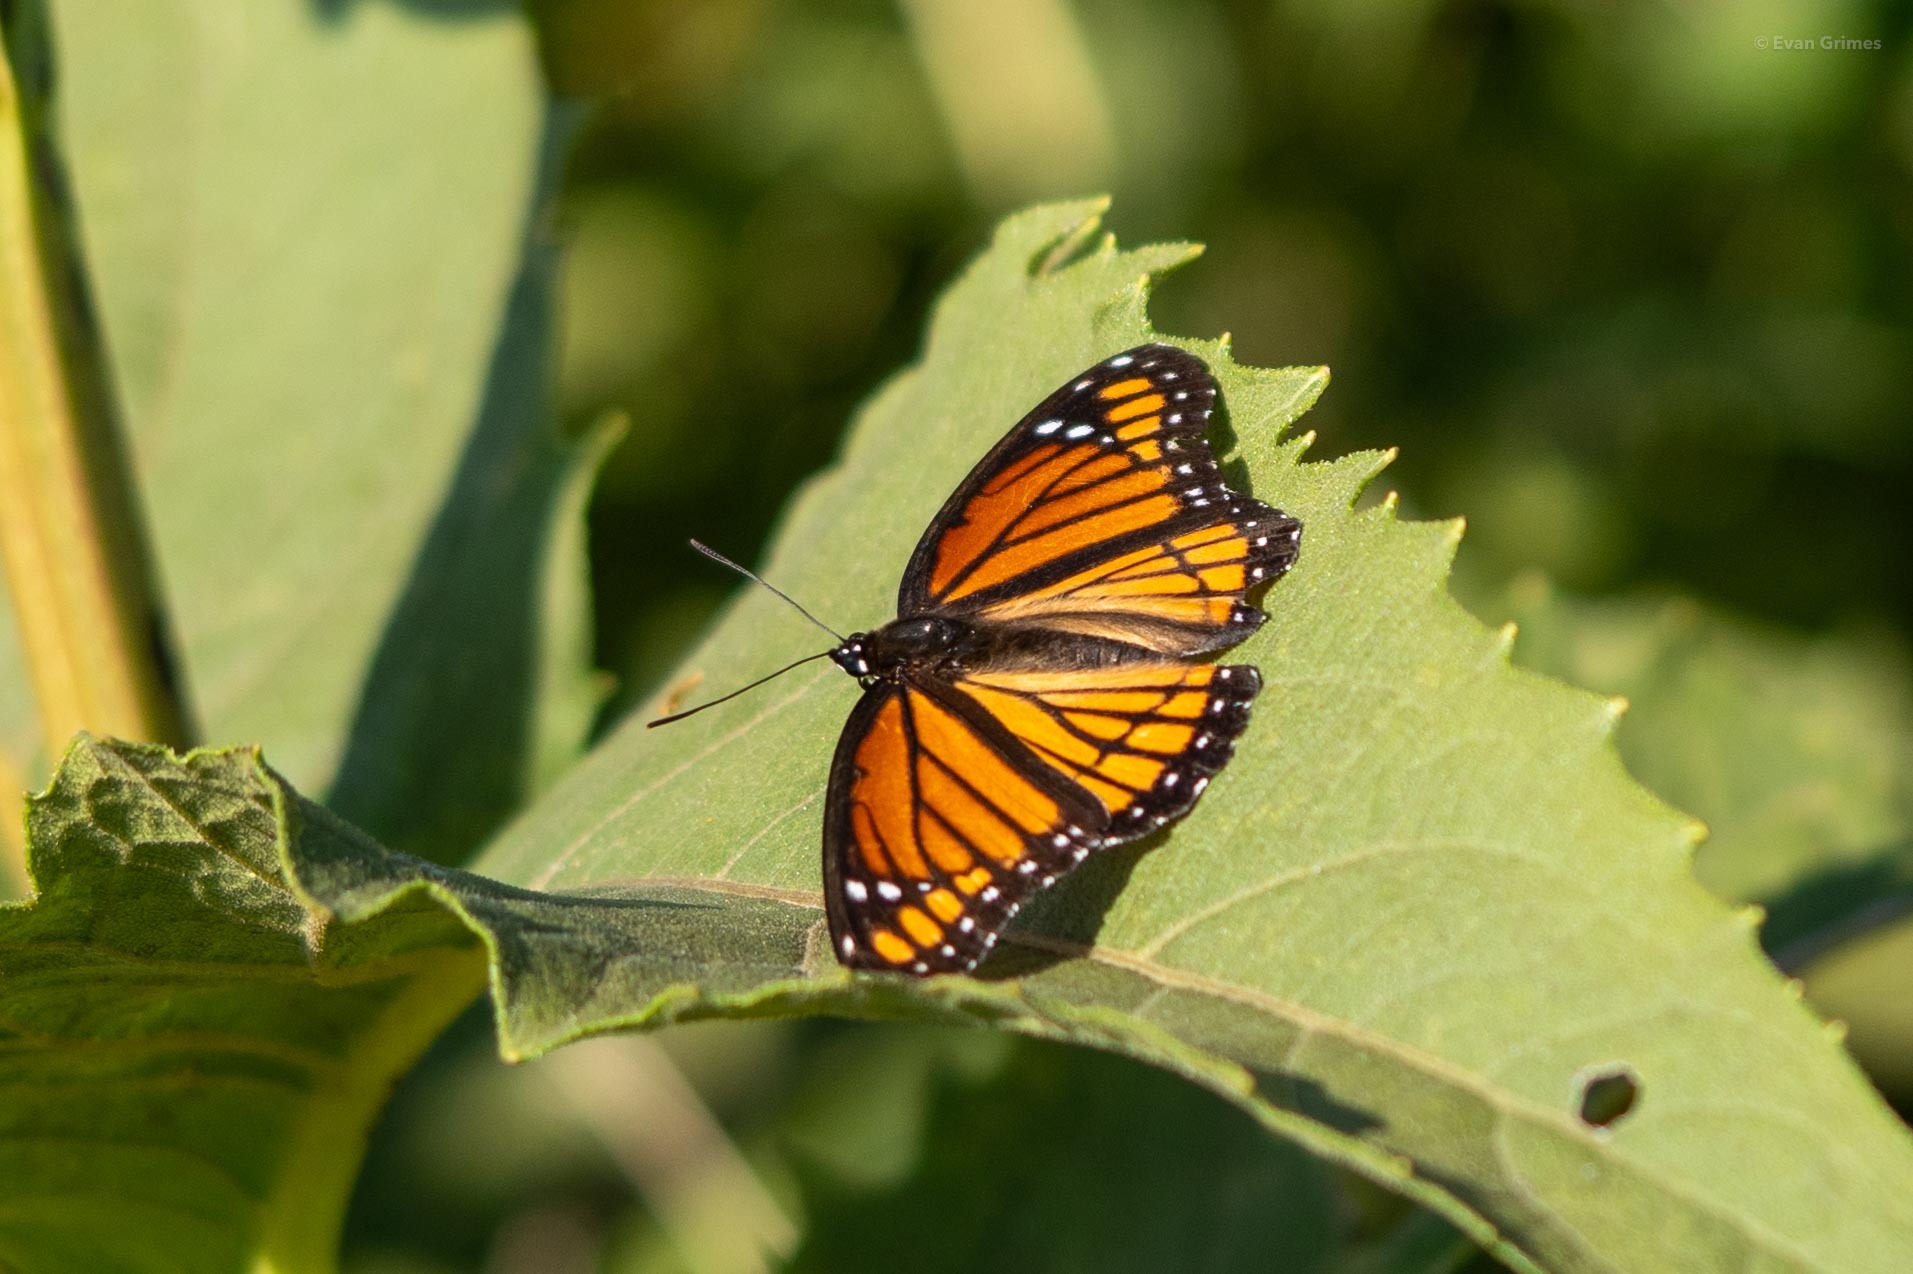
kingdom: Animalia
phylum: Arthropoda
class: Insecta
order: Lepidoptera
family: Nymphalidae
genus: Limenitis
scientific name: Limenitis archippus
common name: Viceroy
